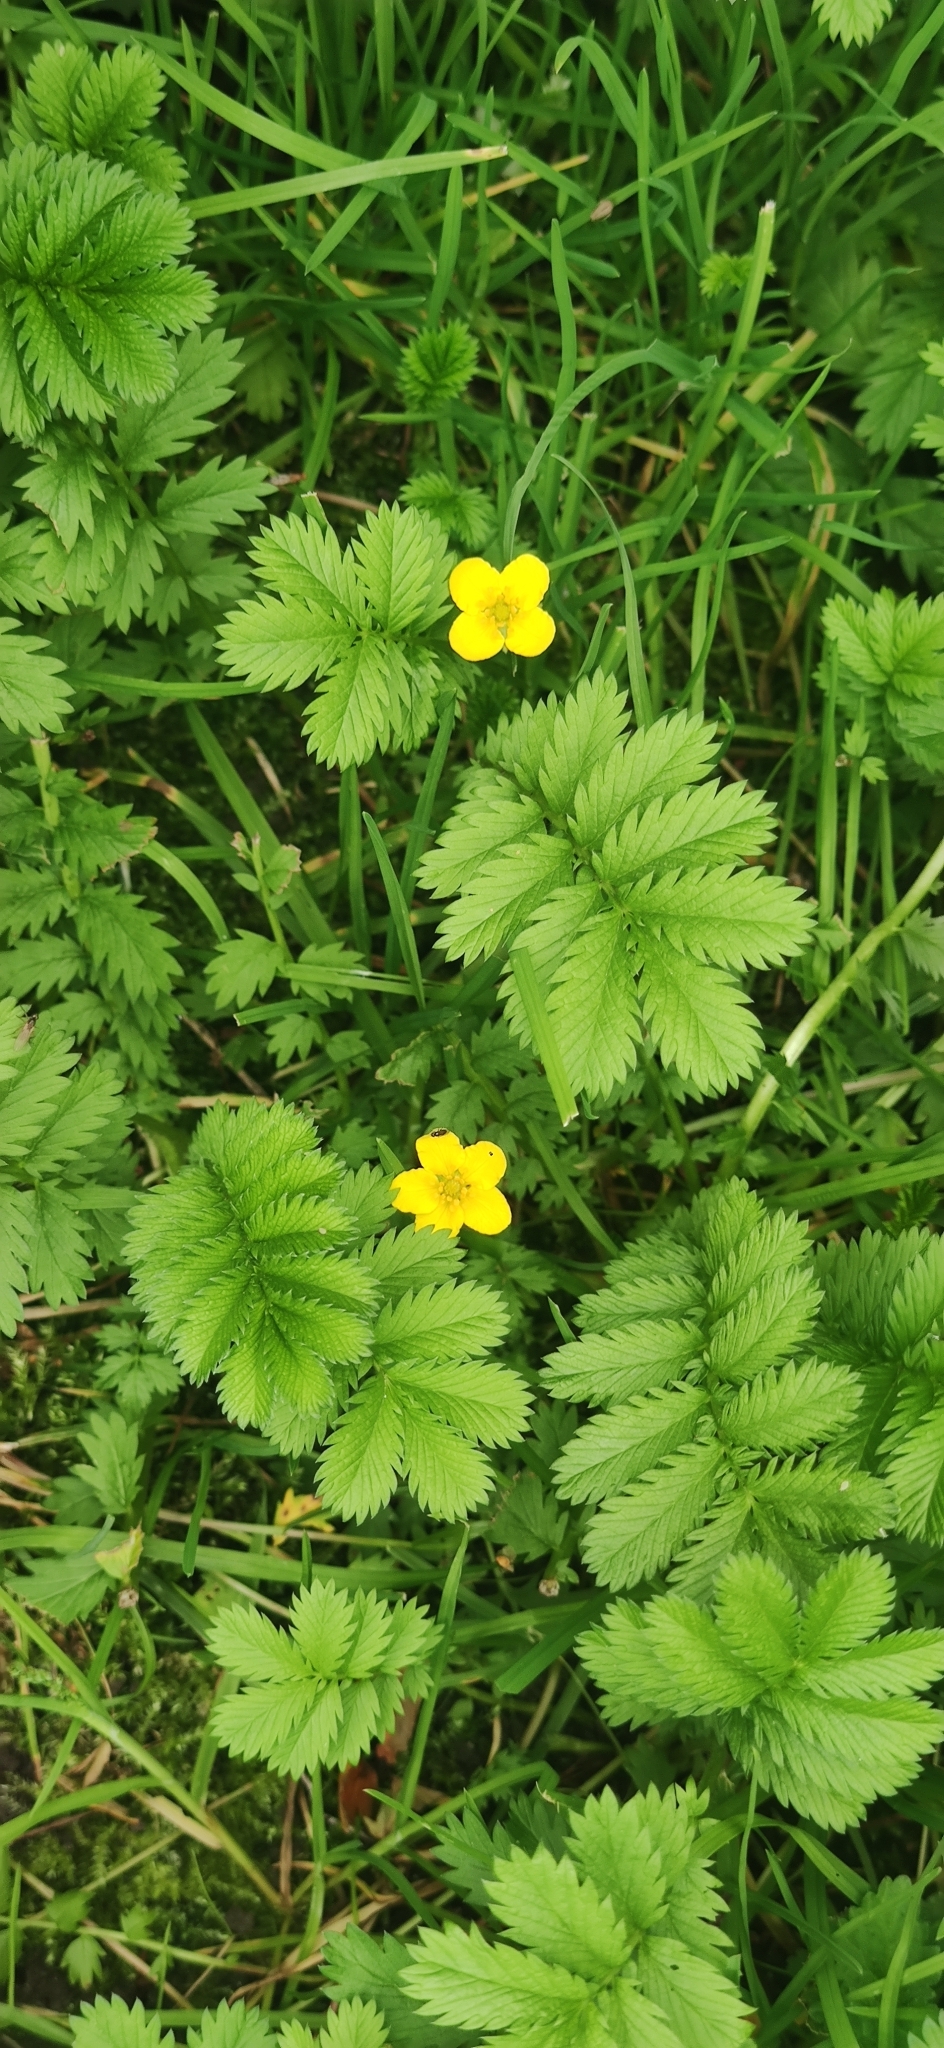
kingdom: Plantae
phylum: Tracheophyta
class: Magnoliopsida
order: Rosales
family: Rosaceae
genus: Argentina
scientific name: Argentina anserina
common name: Common silverweed
